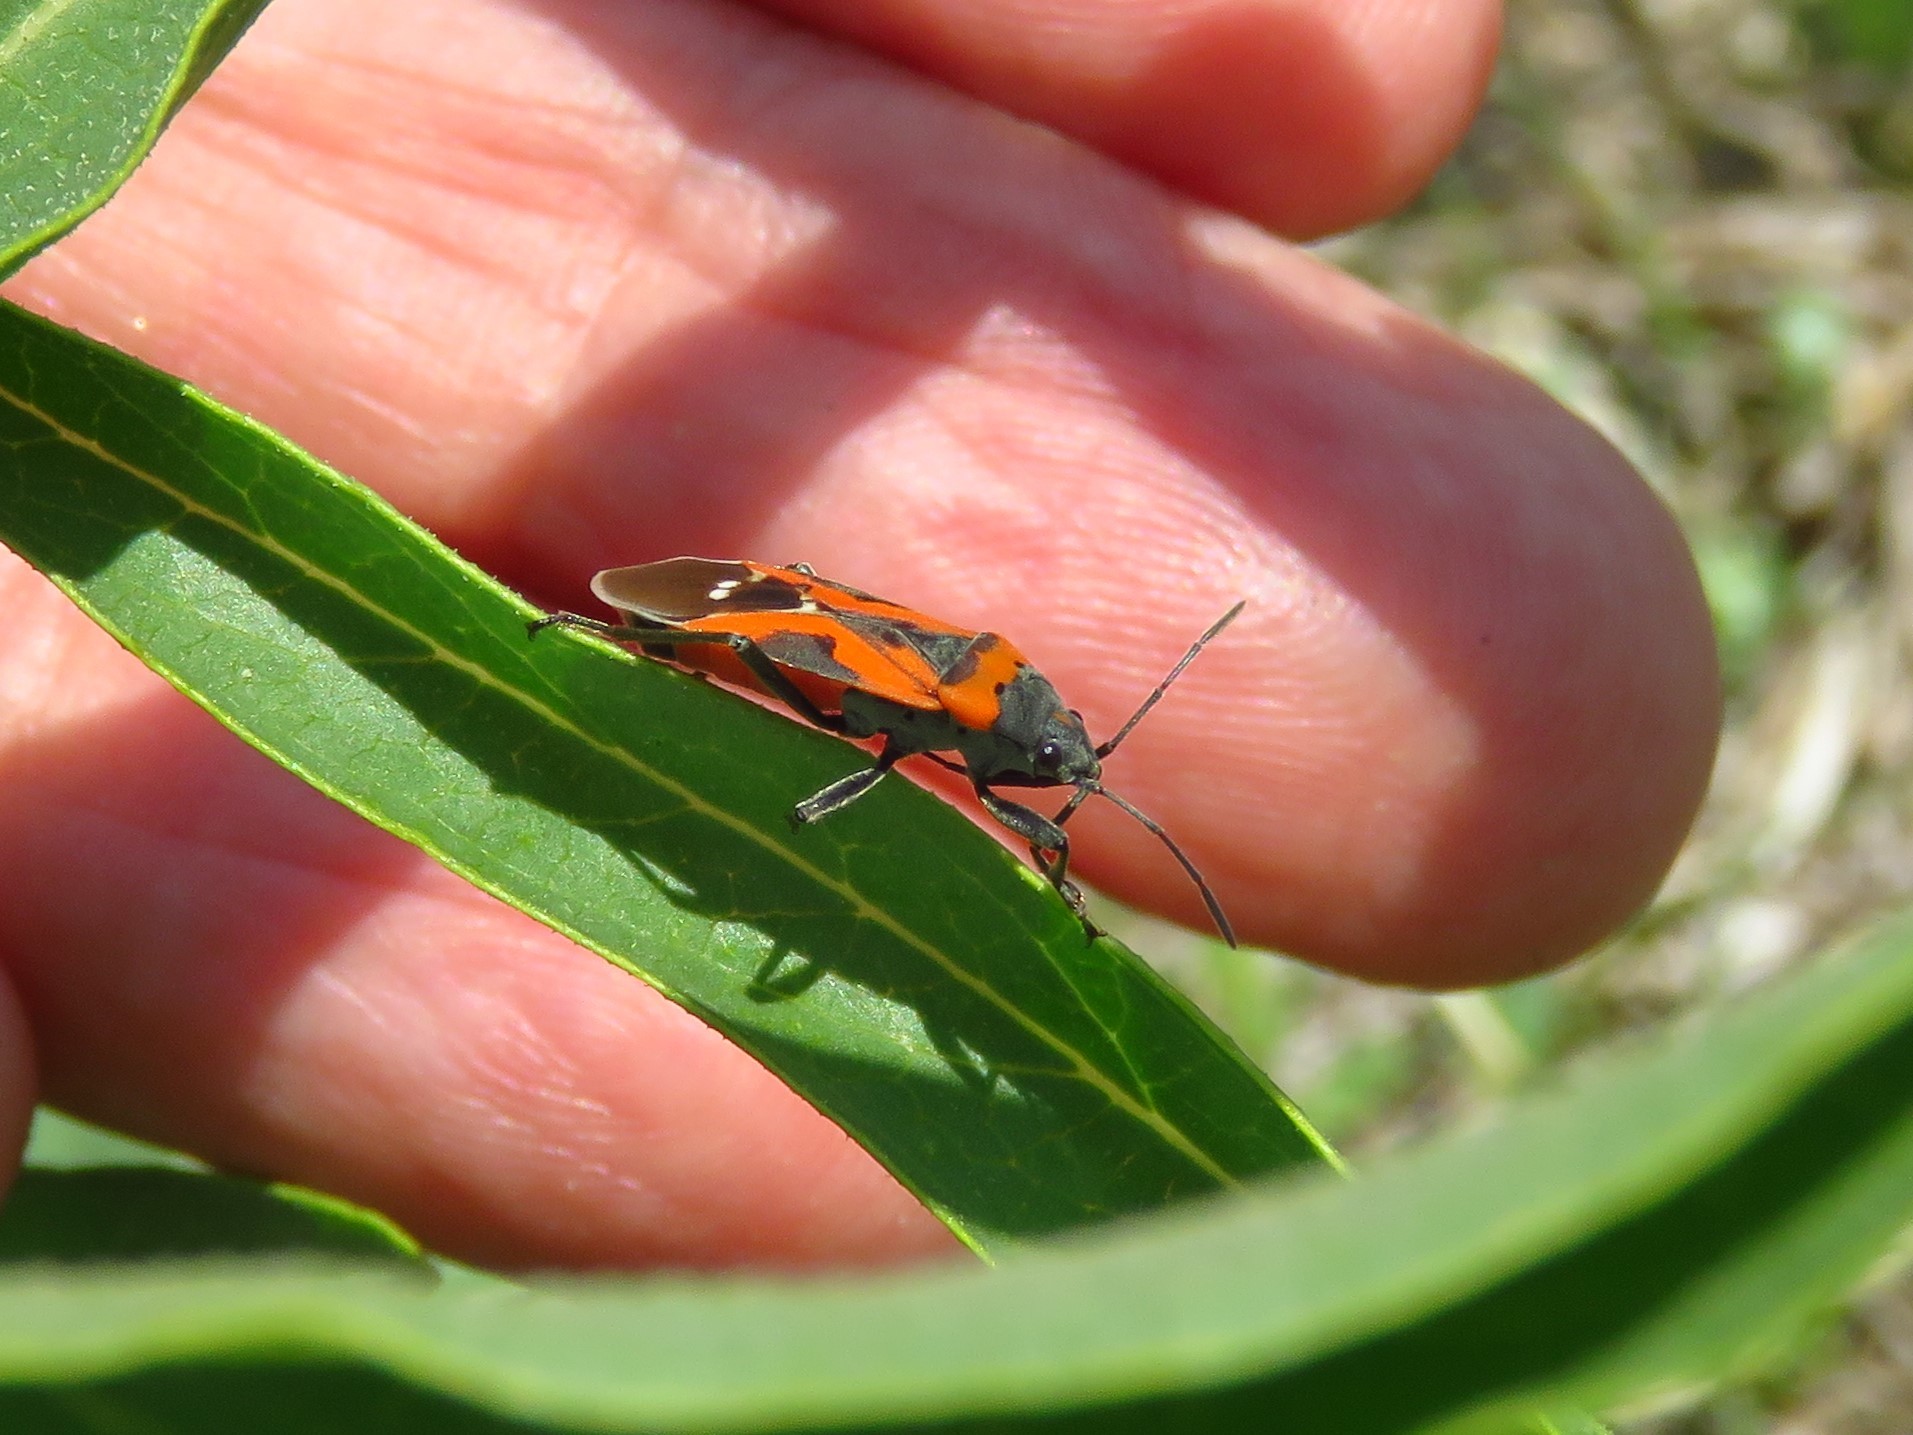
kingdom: Animalia
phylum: Arthropoda
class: Insecta
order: Hemiptera
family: Lygaeidae
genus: Lygaeus
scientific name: Lygaeus reclivatus
